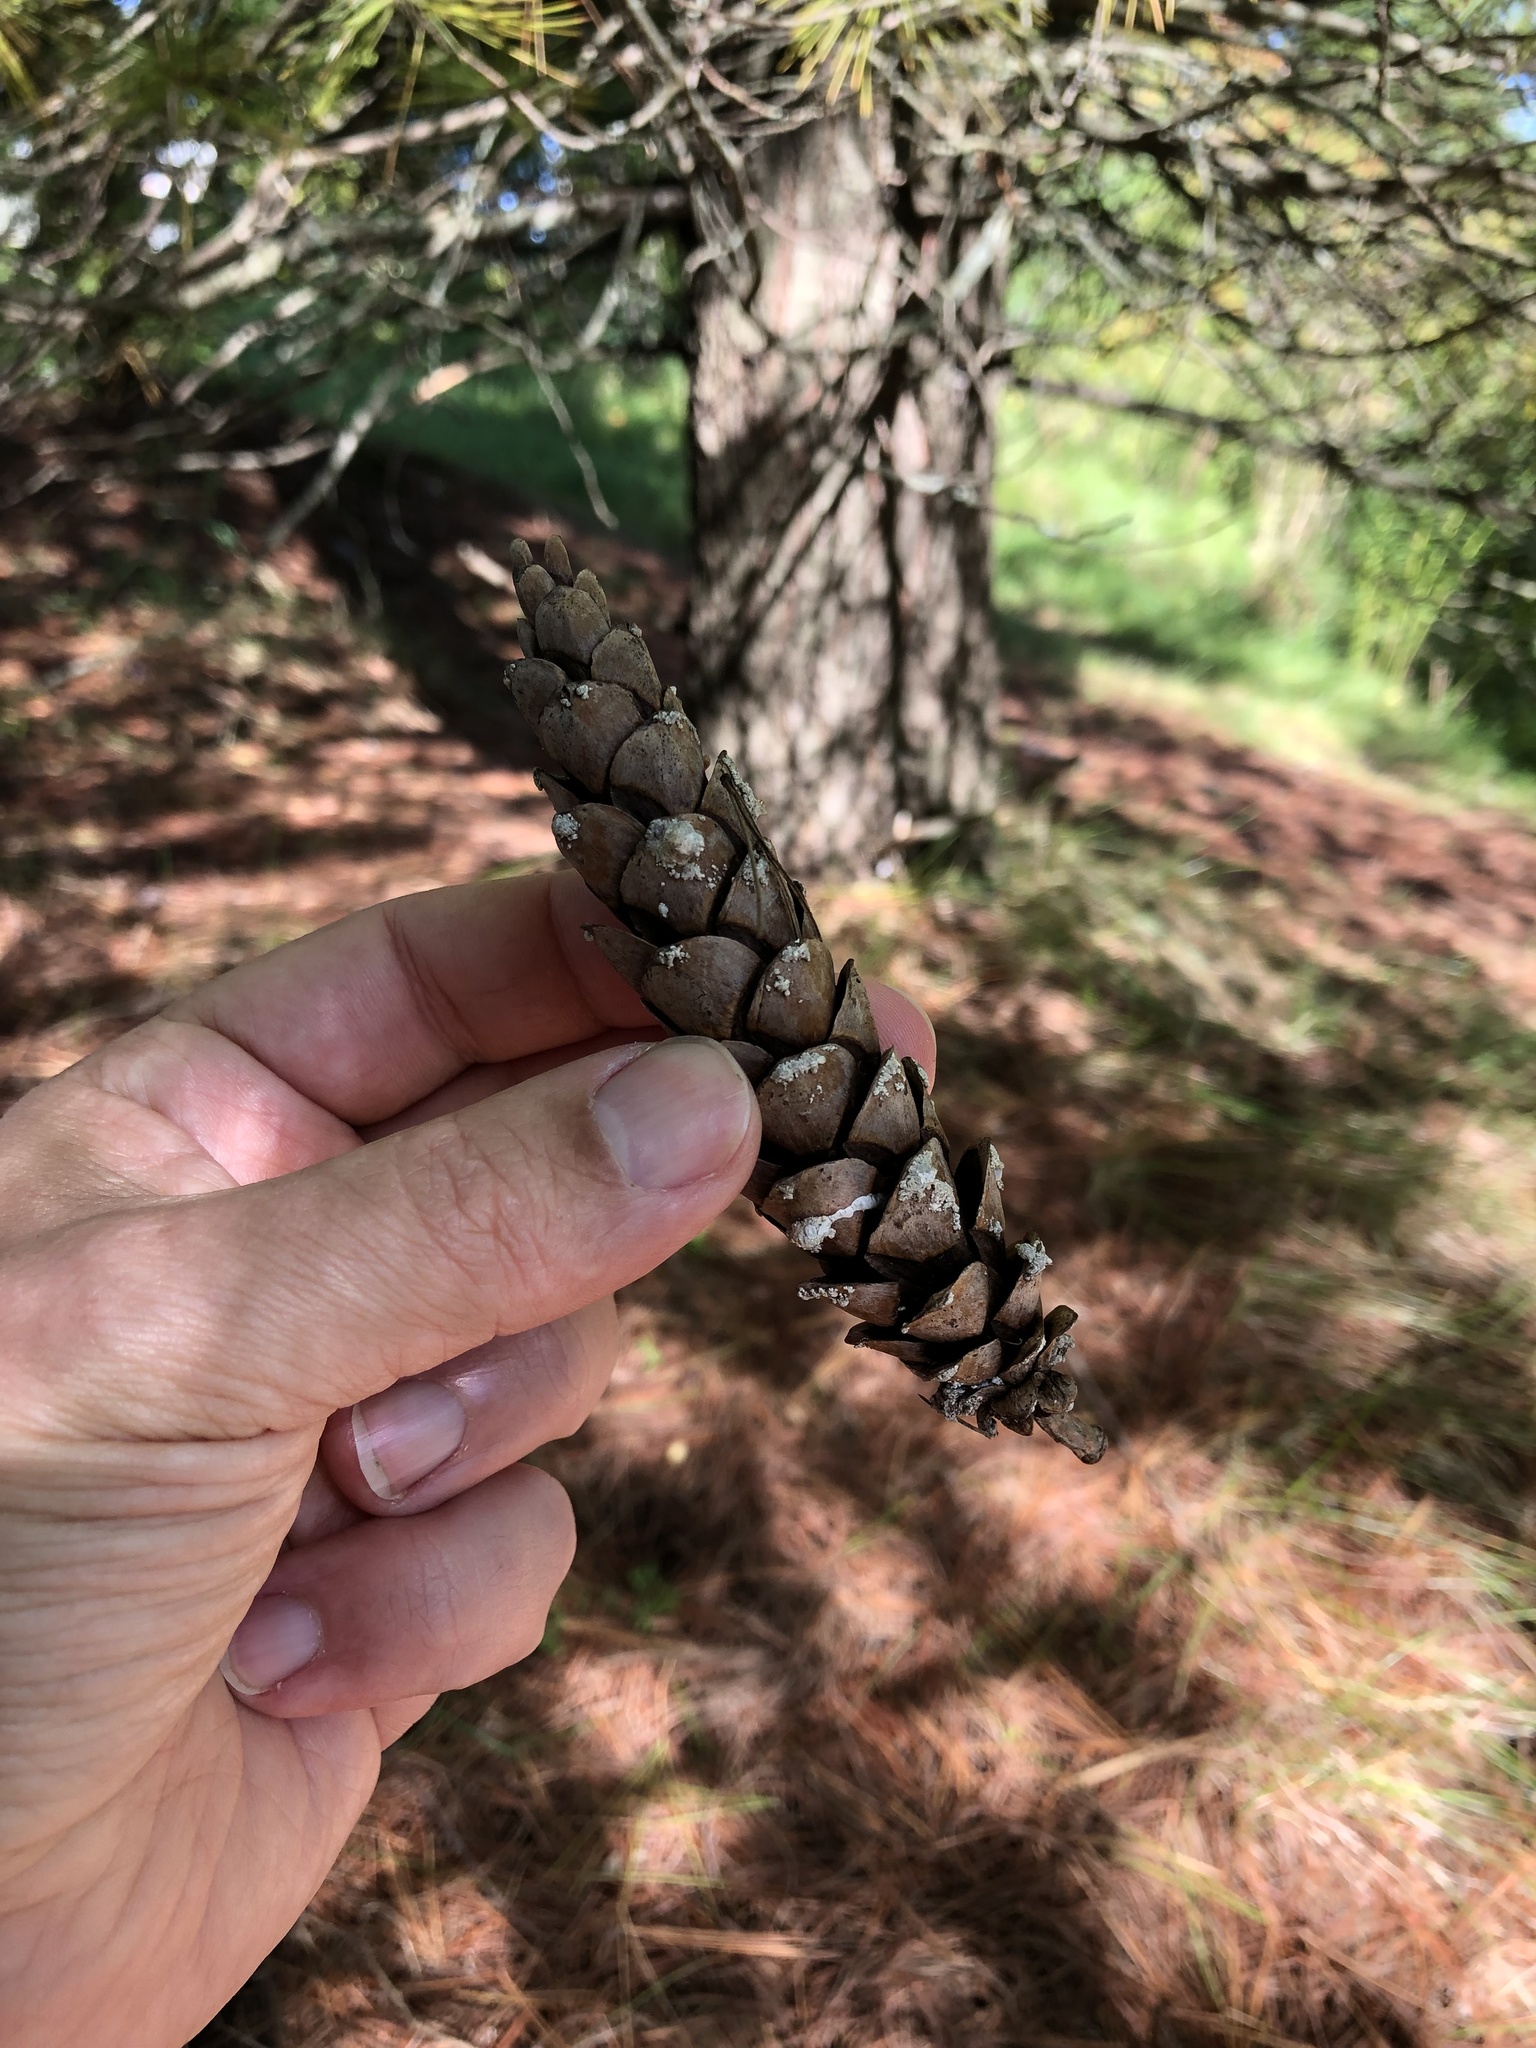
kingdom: Plantae
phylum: Tracheophyta
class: Pinopsida
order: Pinales
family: Pinaceae
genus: Pinus
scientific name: Pinus strobus
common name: Weymouth pine
